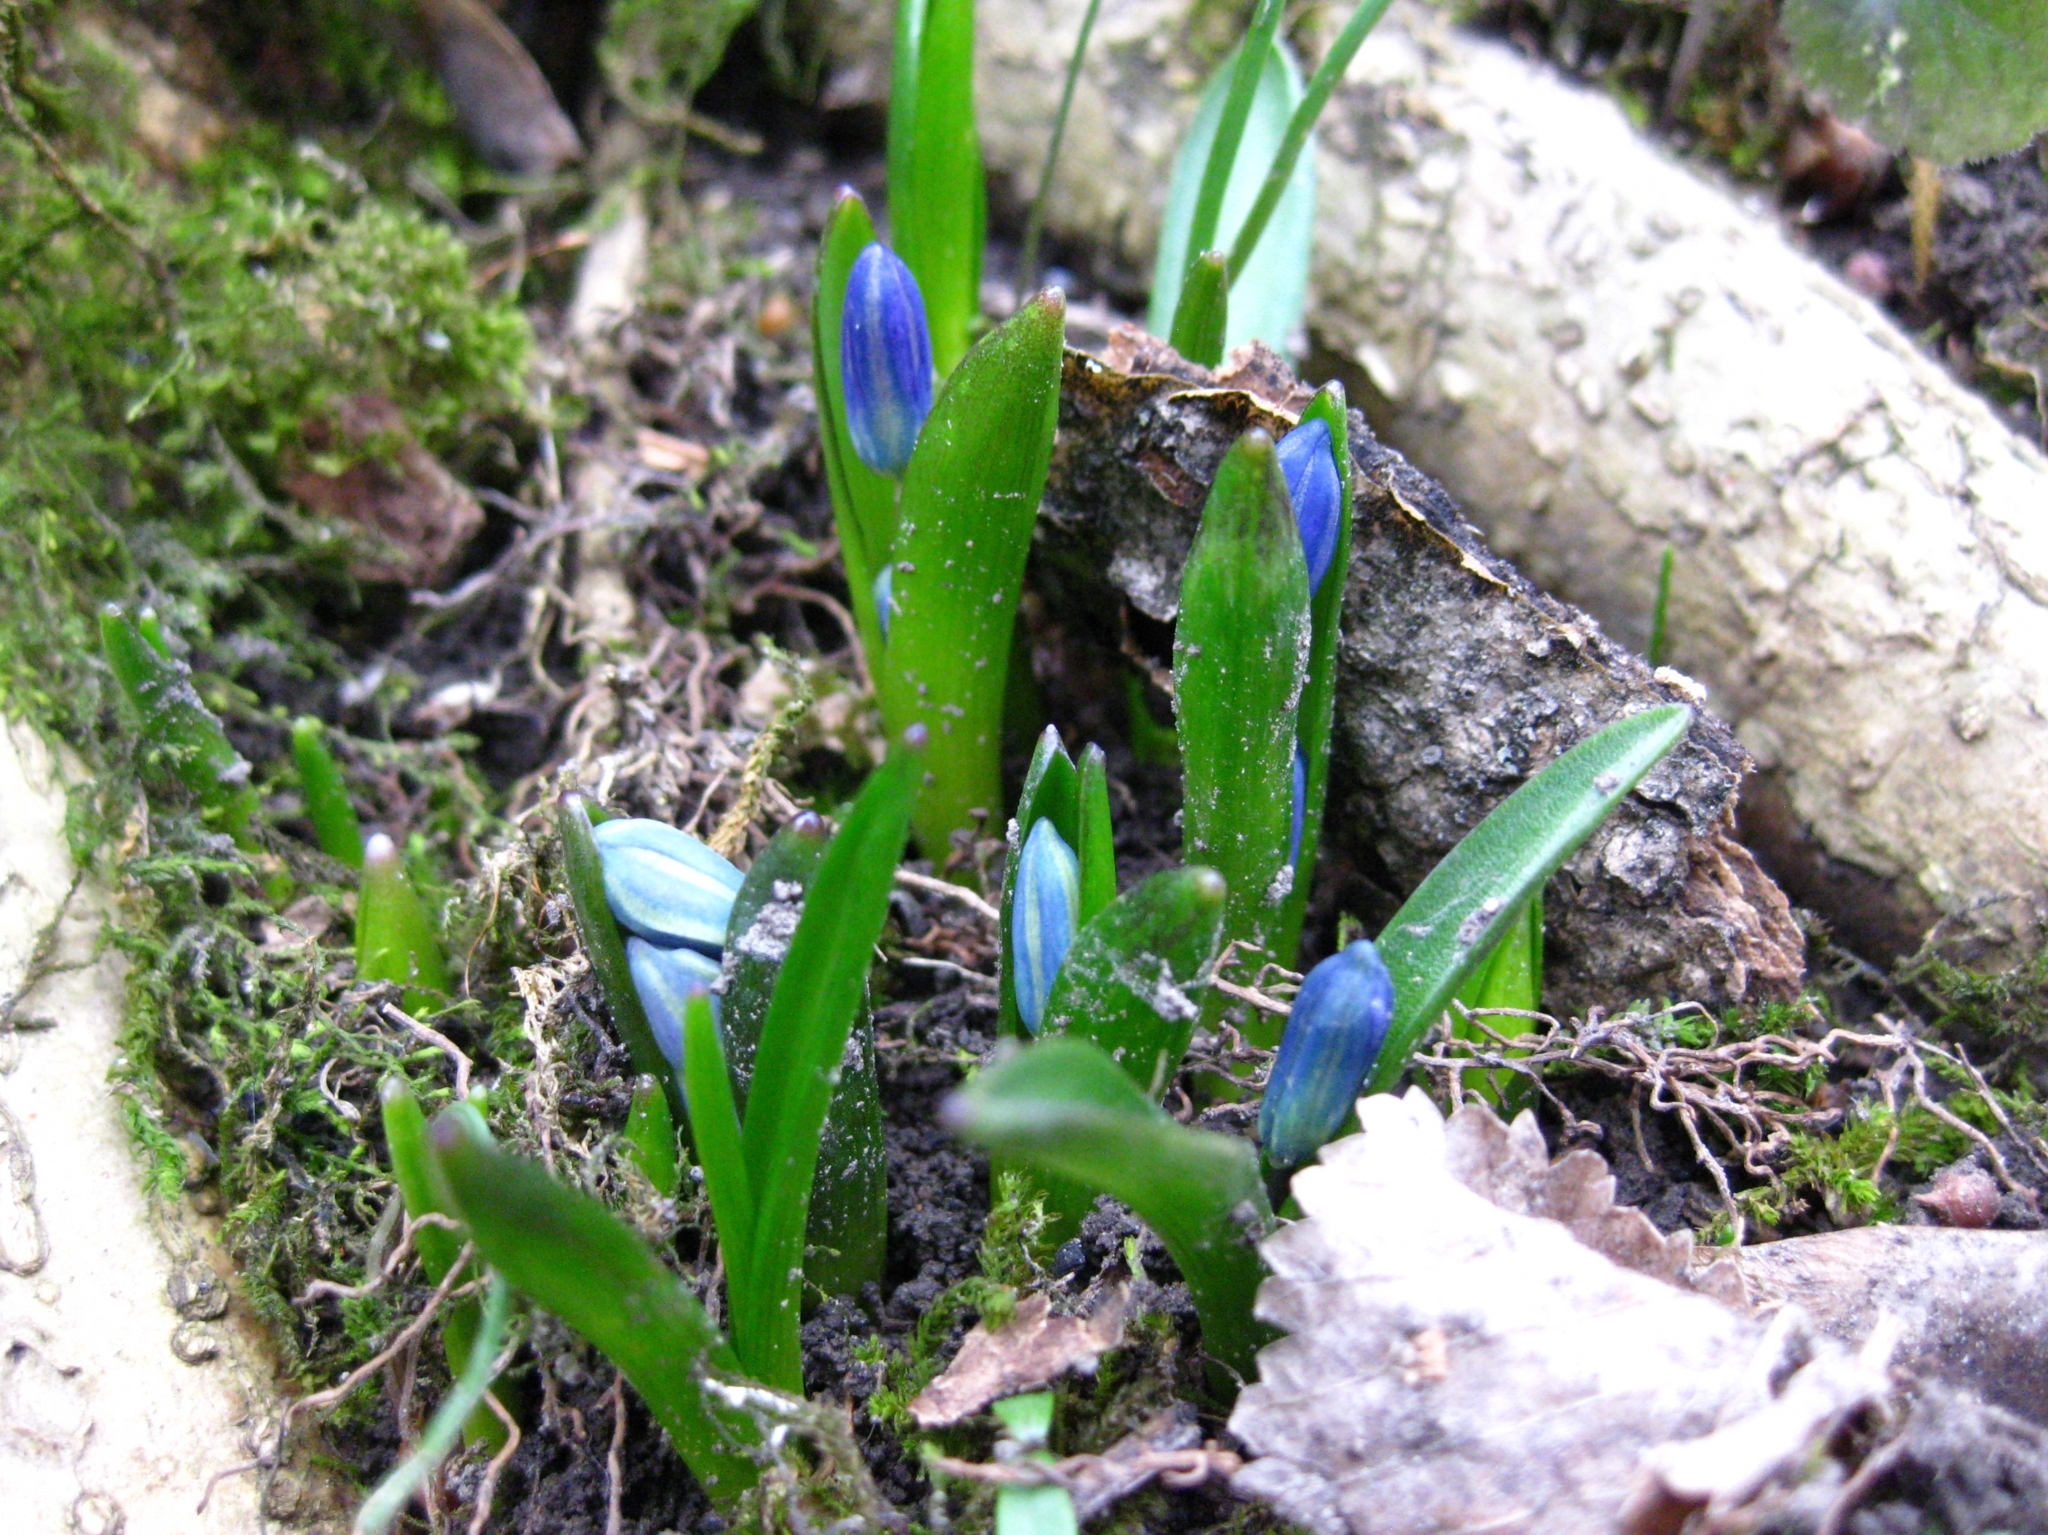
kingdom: Plantae
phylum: Tracheophyta
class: Liliopsida
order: Asparagales
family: Asparagaceae
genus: Scilla
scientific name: Scilla siberica
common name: Siberian squill
